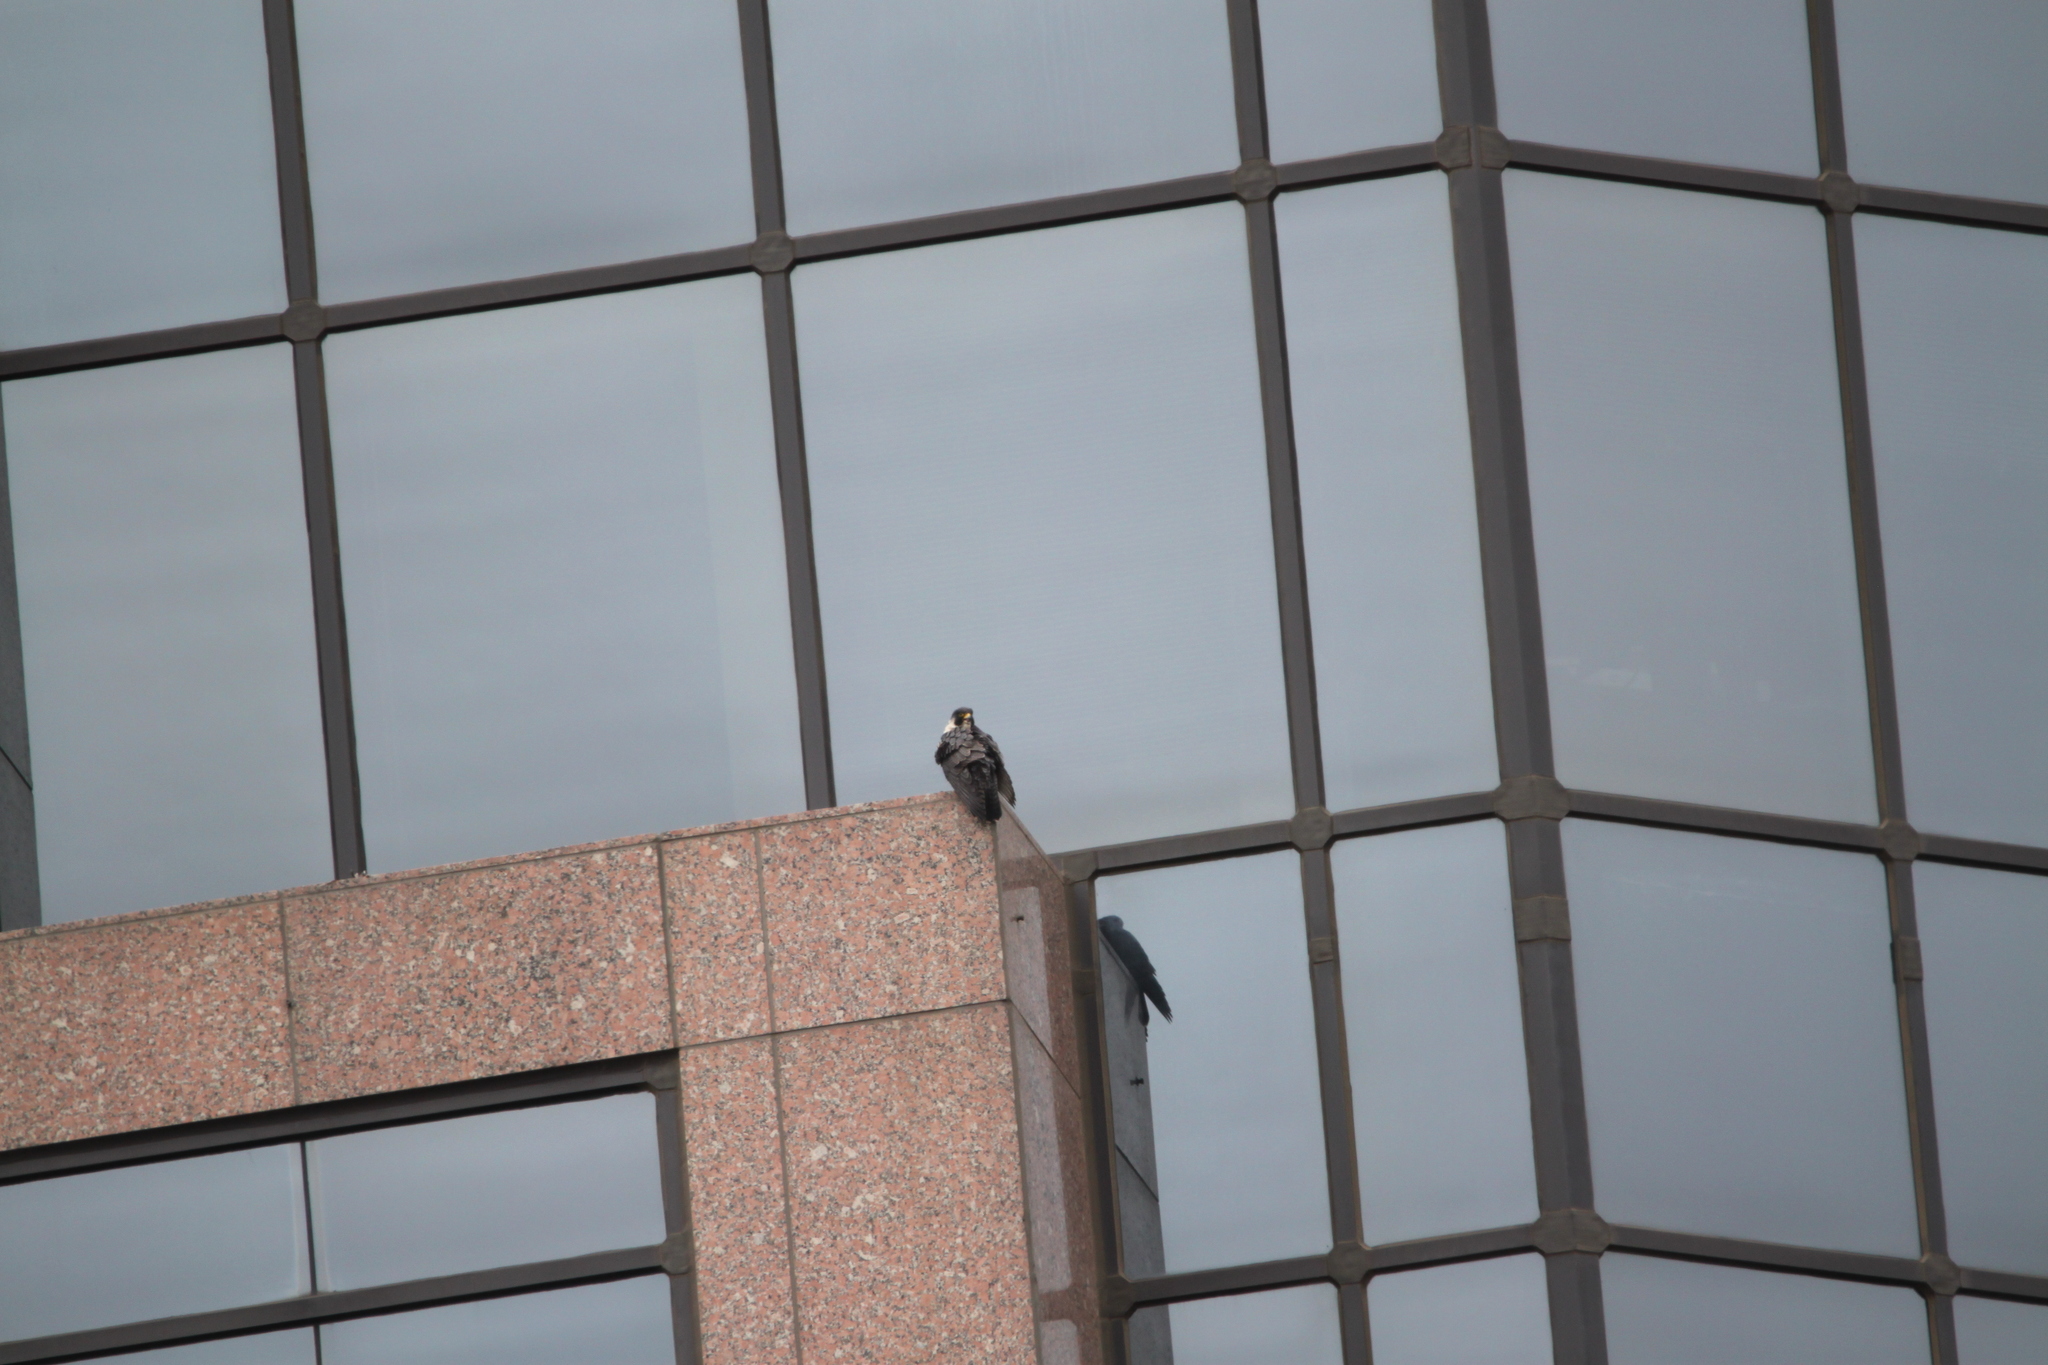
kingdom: Animalia
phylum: Chordata
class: Aves
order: Falconiformes
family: Falconidae
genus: Falco
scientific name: Falco peregrinus
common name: Peregrine falcon
